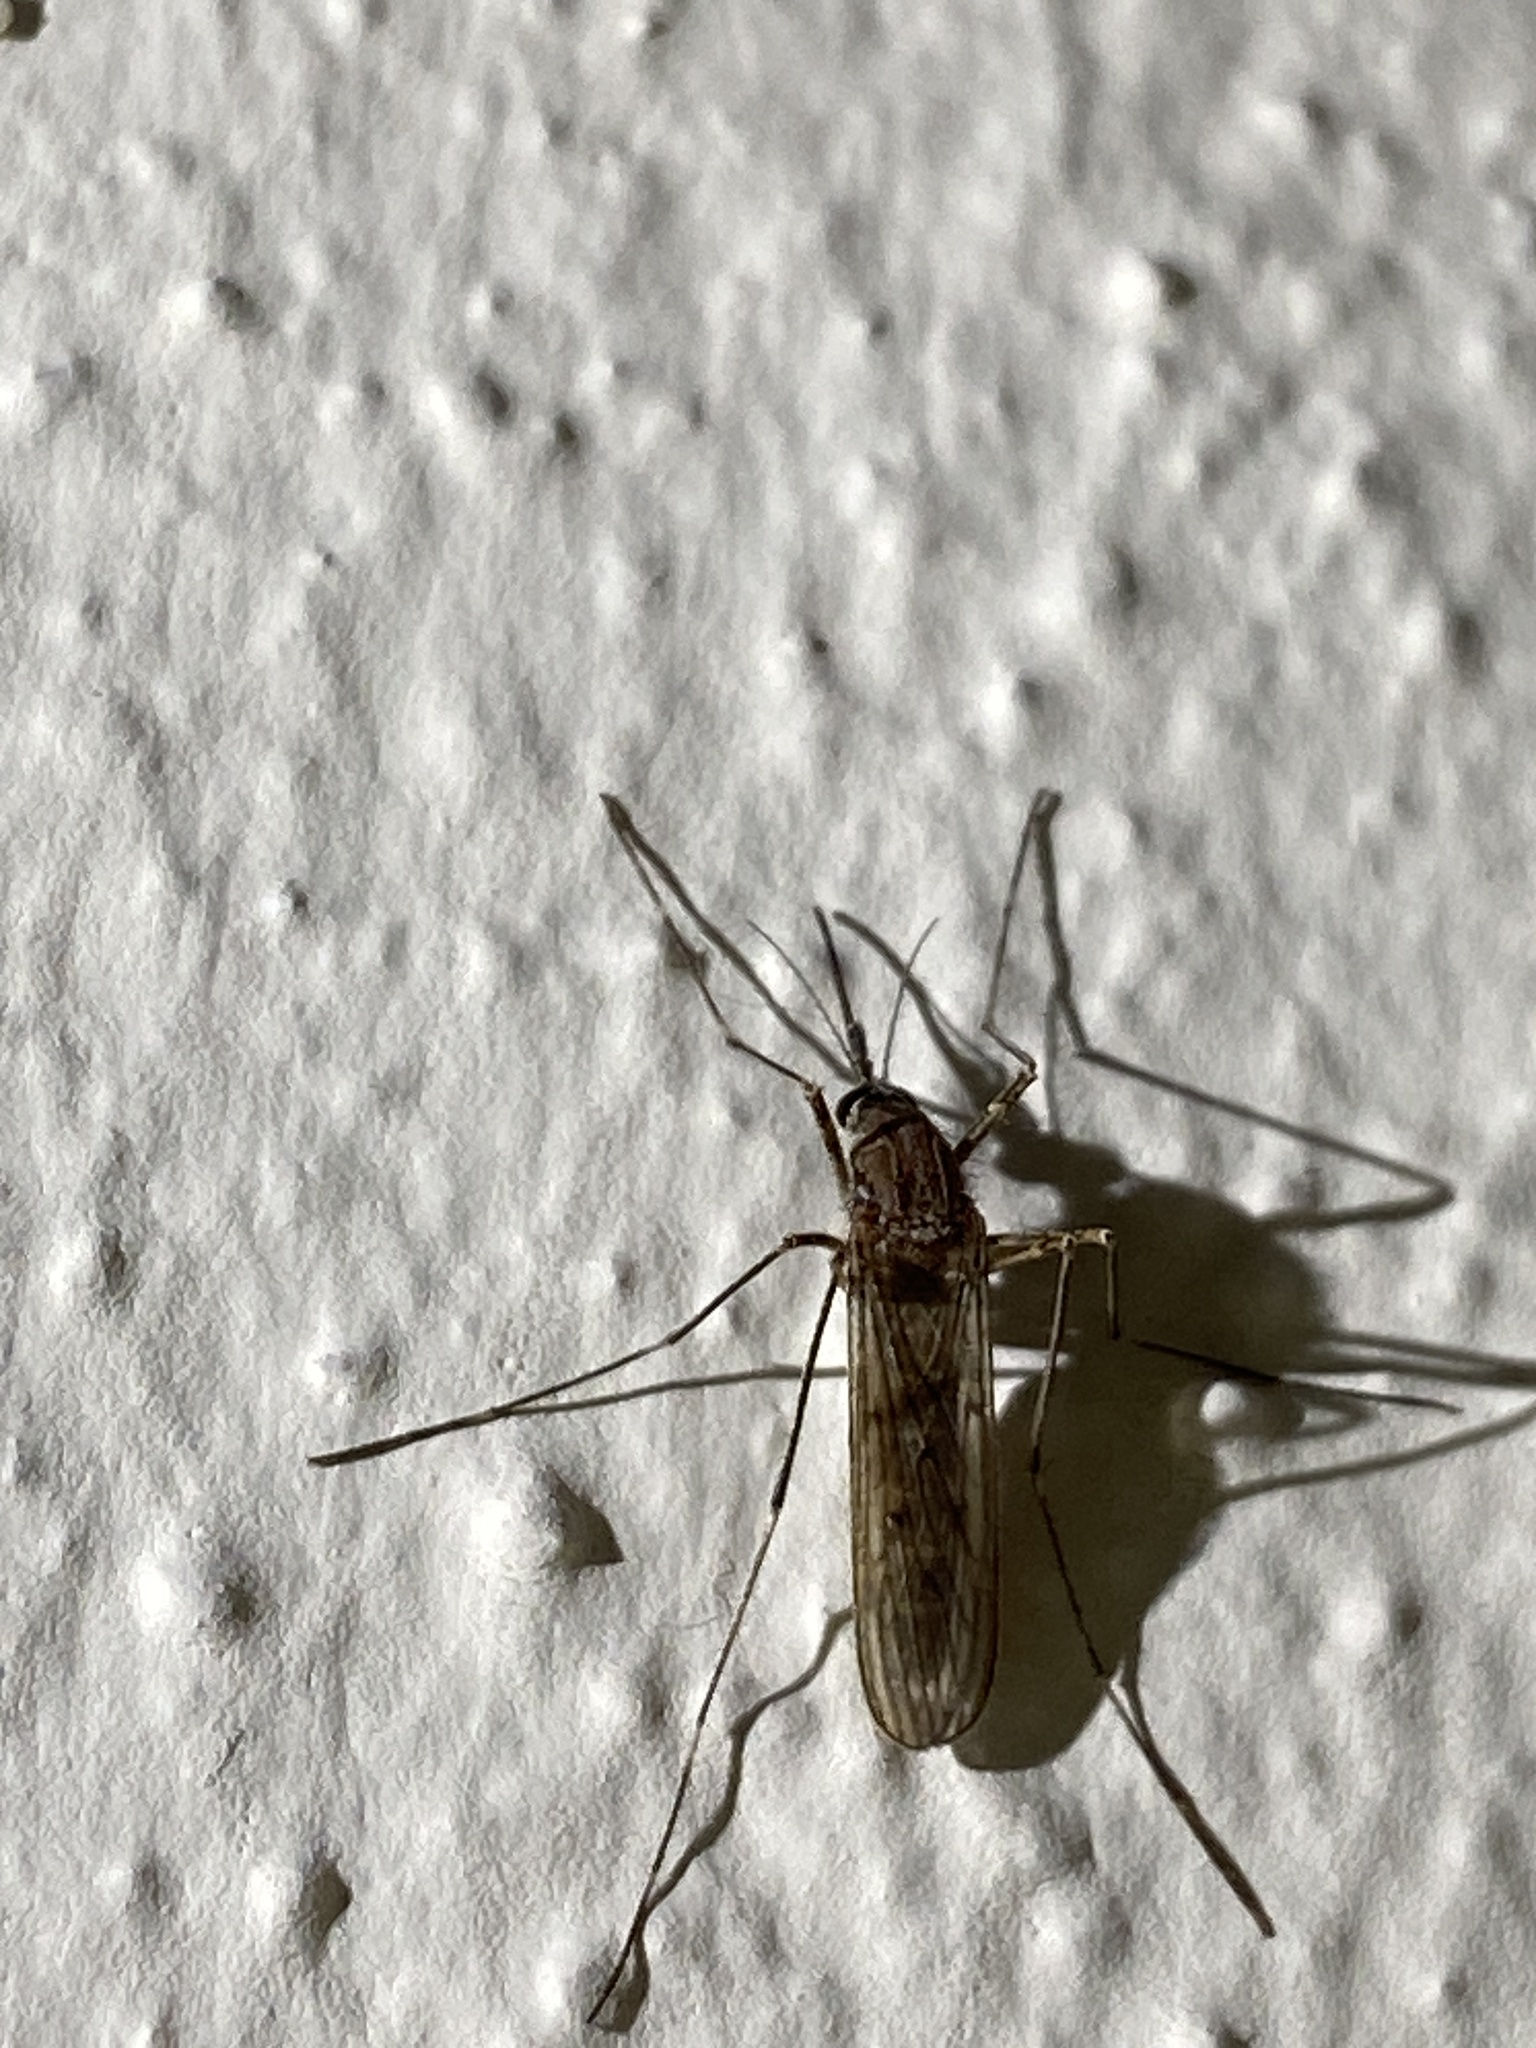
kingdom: Animalia
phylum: Arthropoda
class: Insecta
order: Diptera
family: Culicidae
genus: Culiseta
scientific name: Culiseta longiareolata
